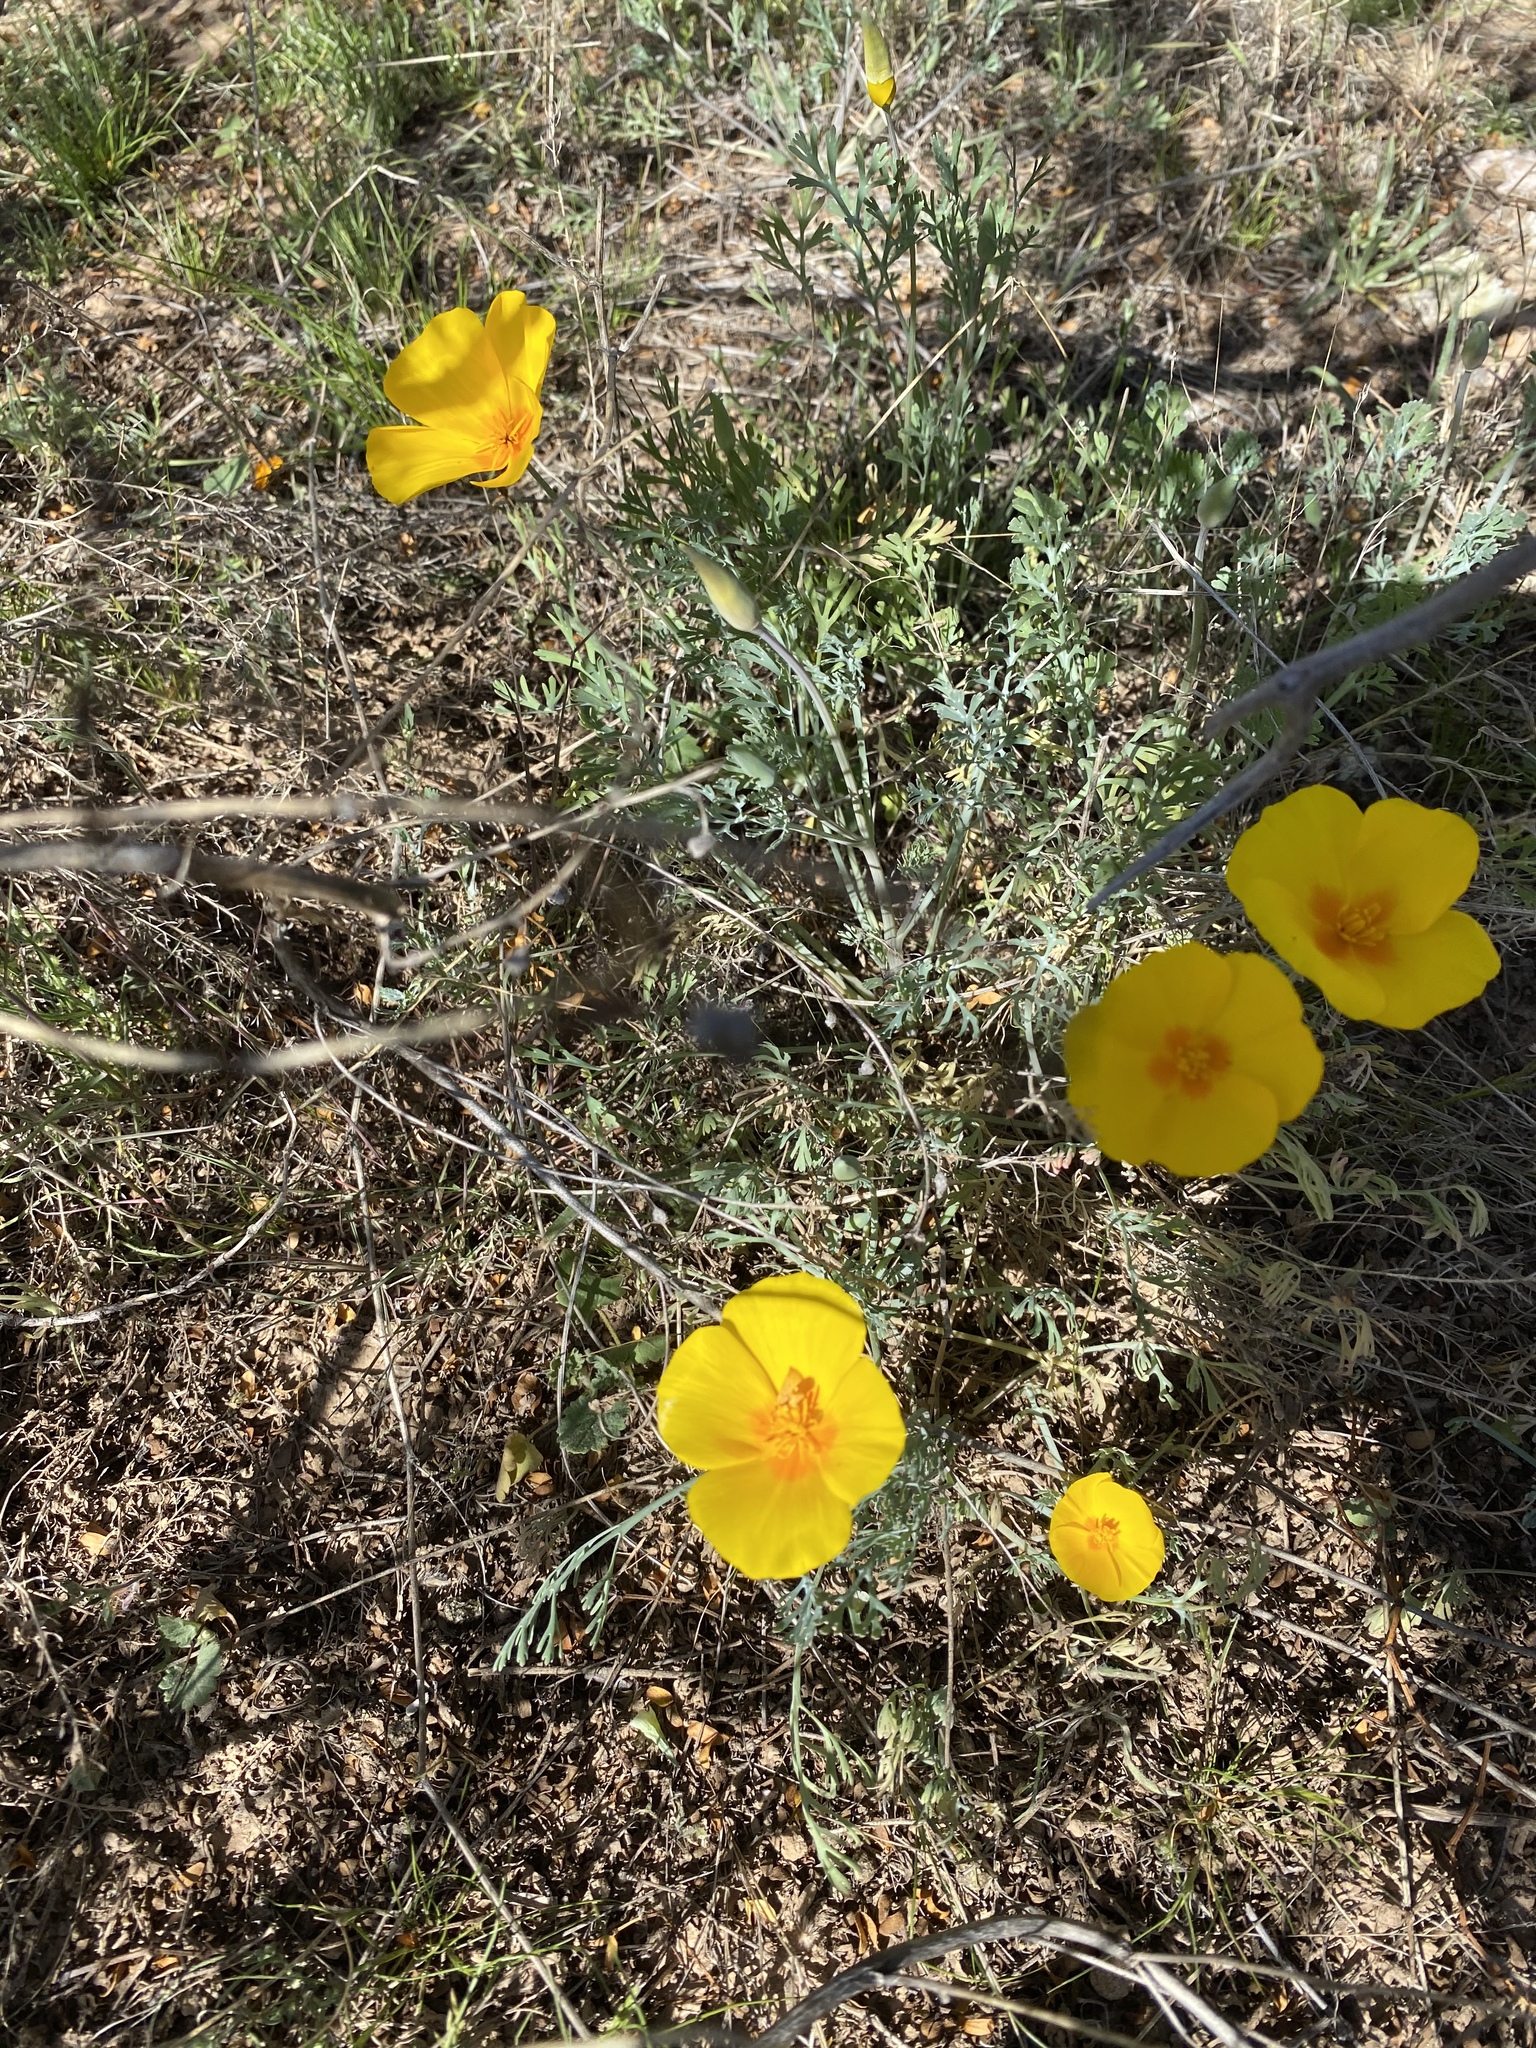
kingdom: Plantae
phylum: Tracheophyta
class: Magnoliopsida
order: Ranunculales
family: Papaveraceae
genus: Eschscholzia
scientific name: Eschscholzia californica
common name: California poppy
